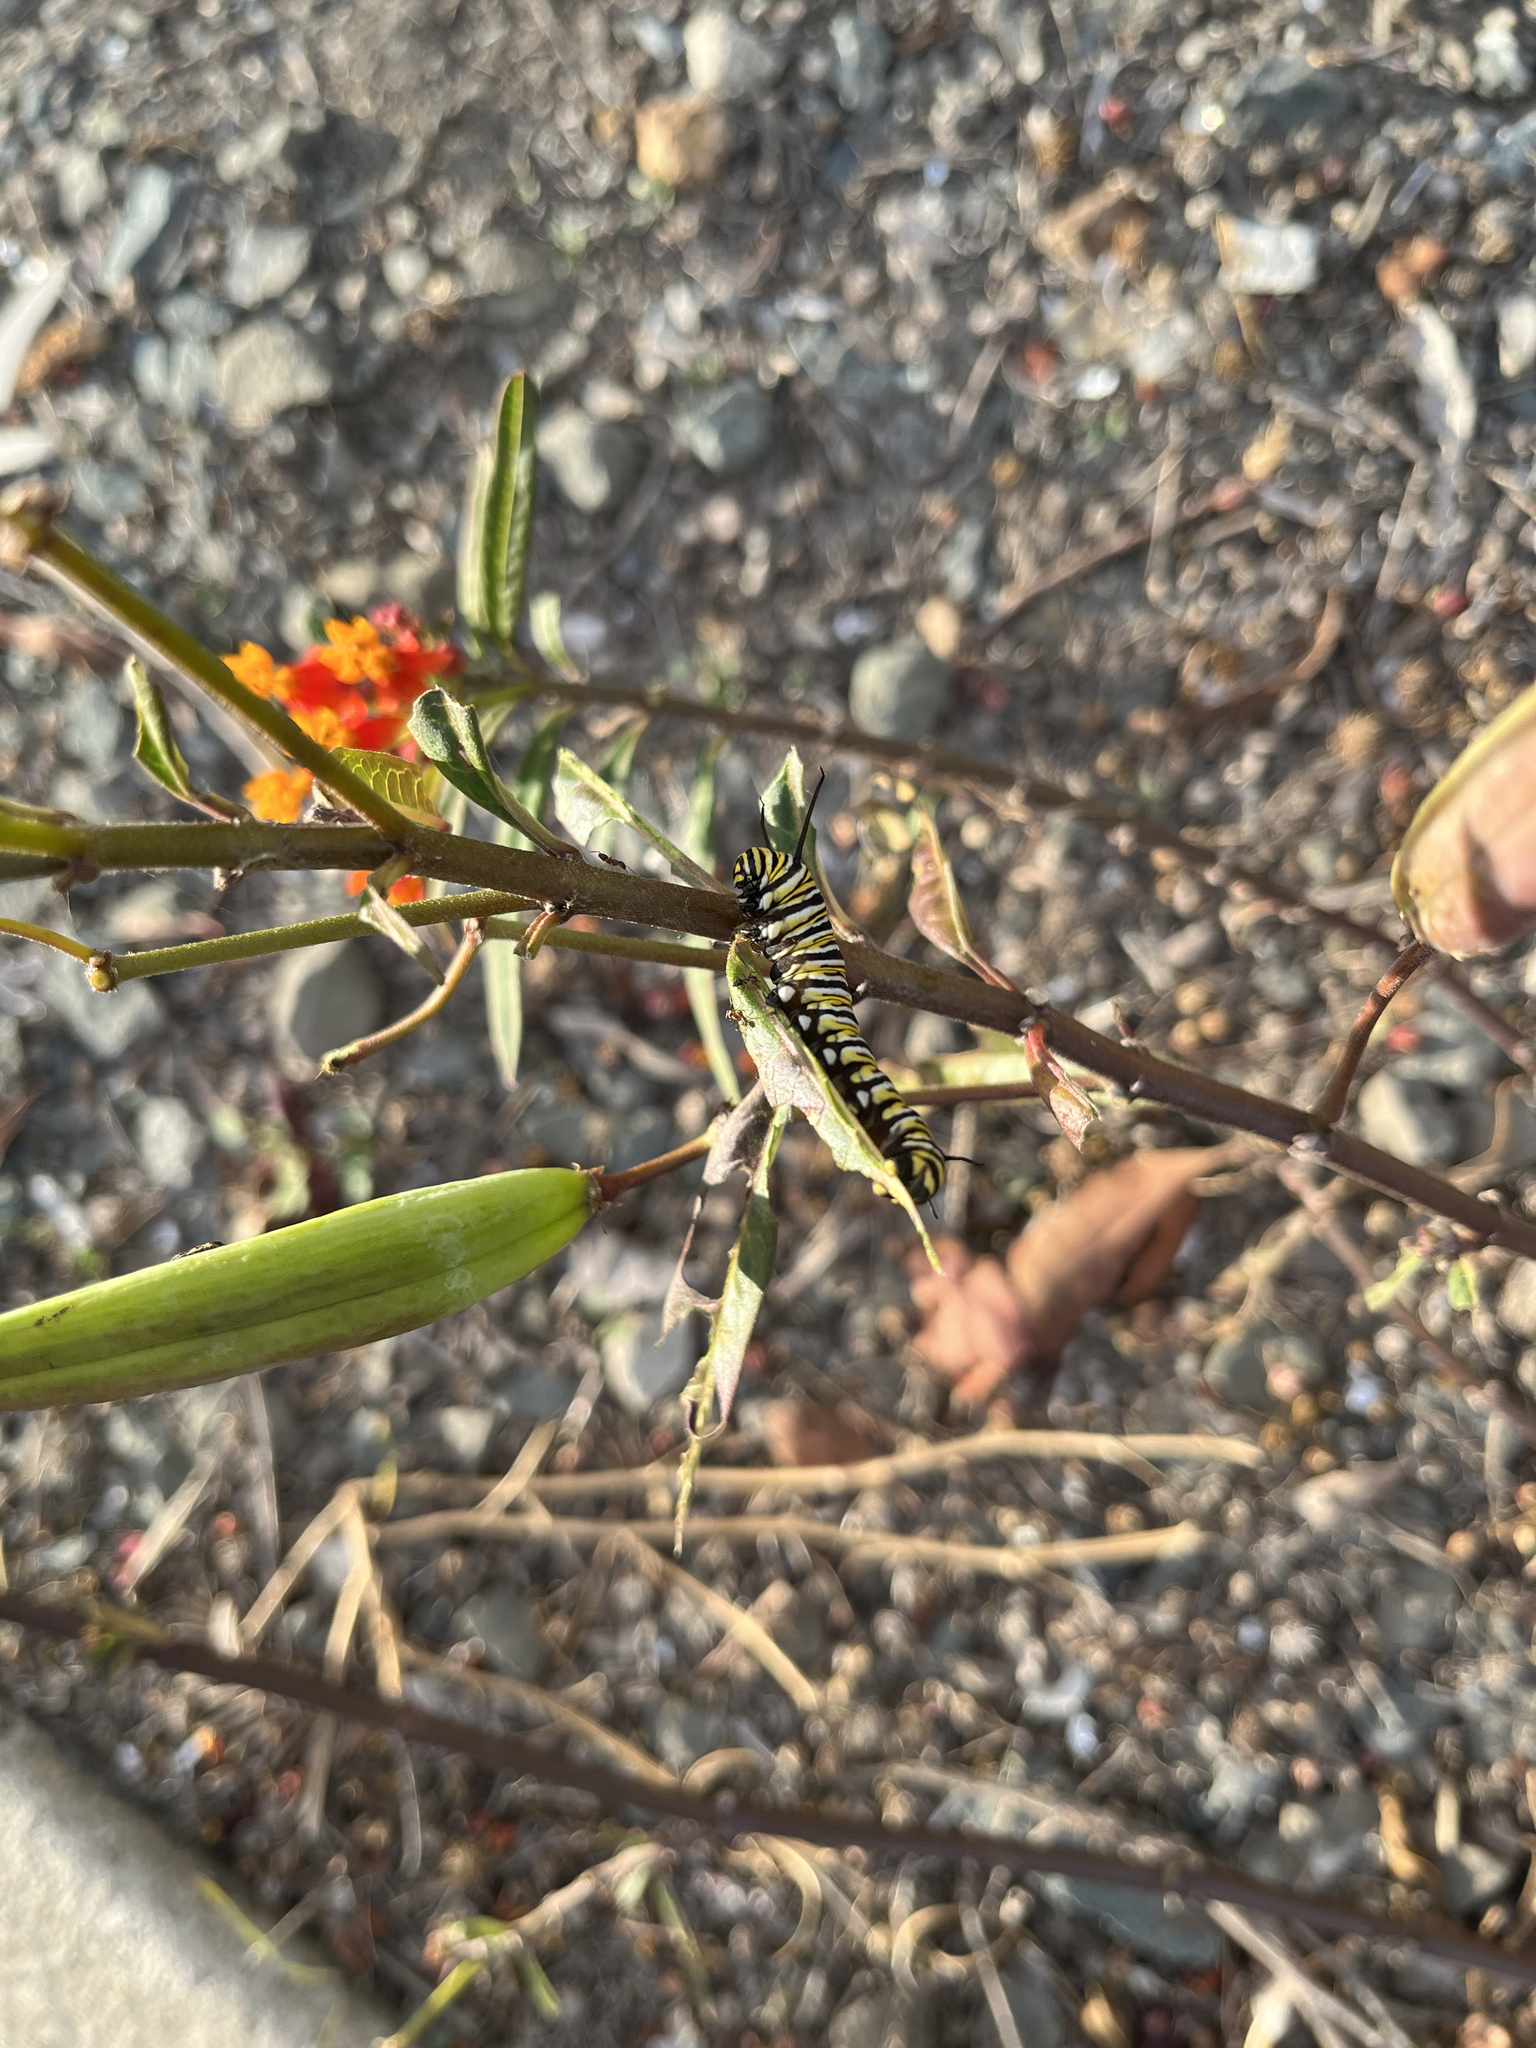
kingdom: Animalia
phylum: Arthropoda
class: Insecta
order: Lepidoptera
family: Nymphalidae
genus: Danaus
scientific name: Danaus plexippus
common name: Monarch
